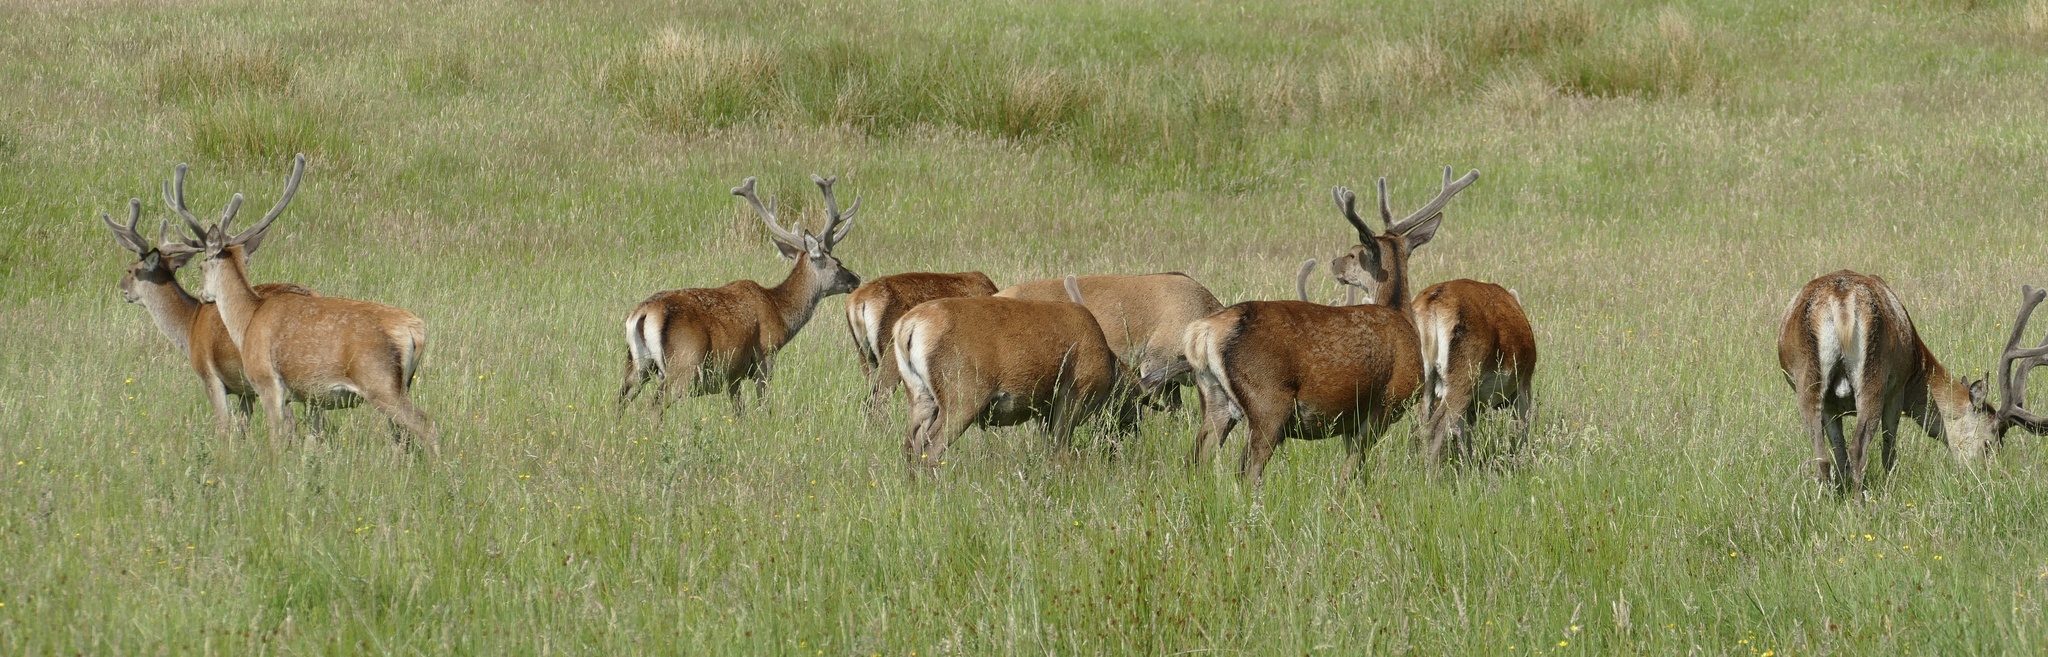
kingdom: Animalia
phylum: Chordata
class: Mammalia
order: Artiodactyla
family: Cervidae
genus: Cervus
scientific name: Cervus elaphus
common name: Red deer
